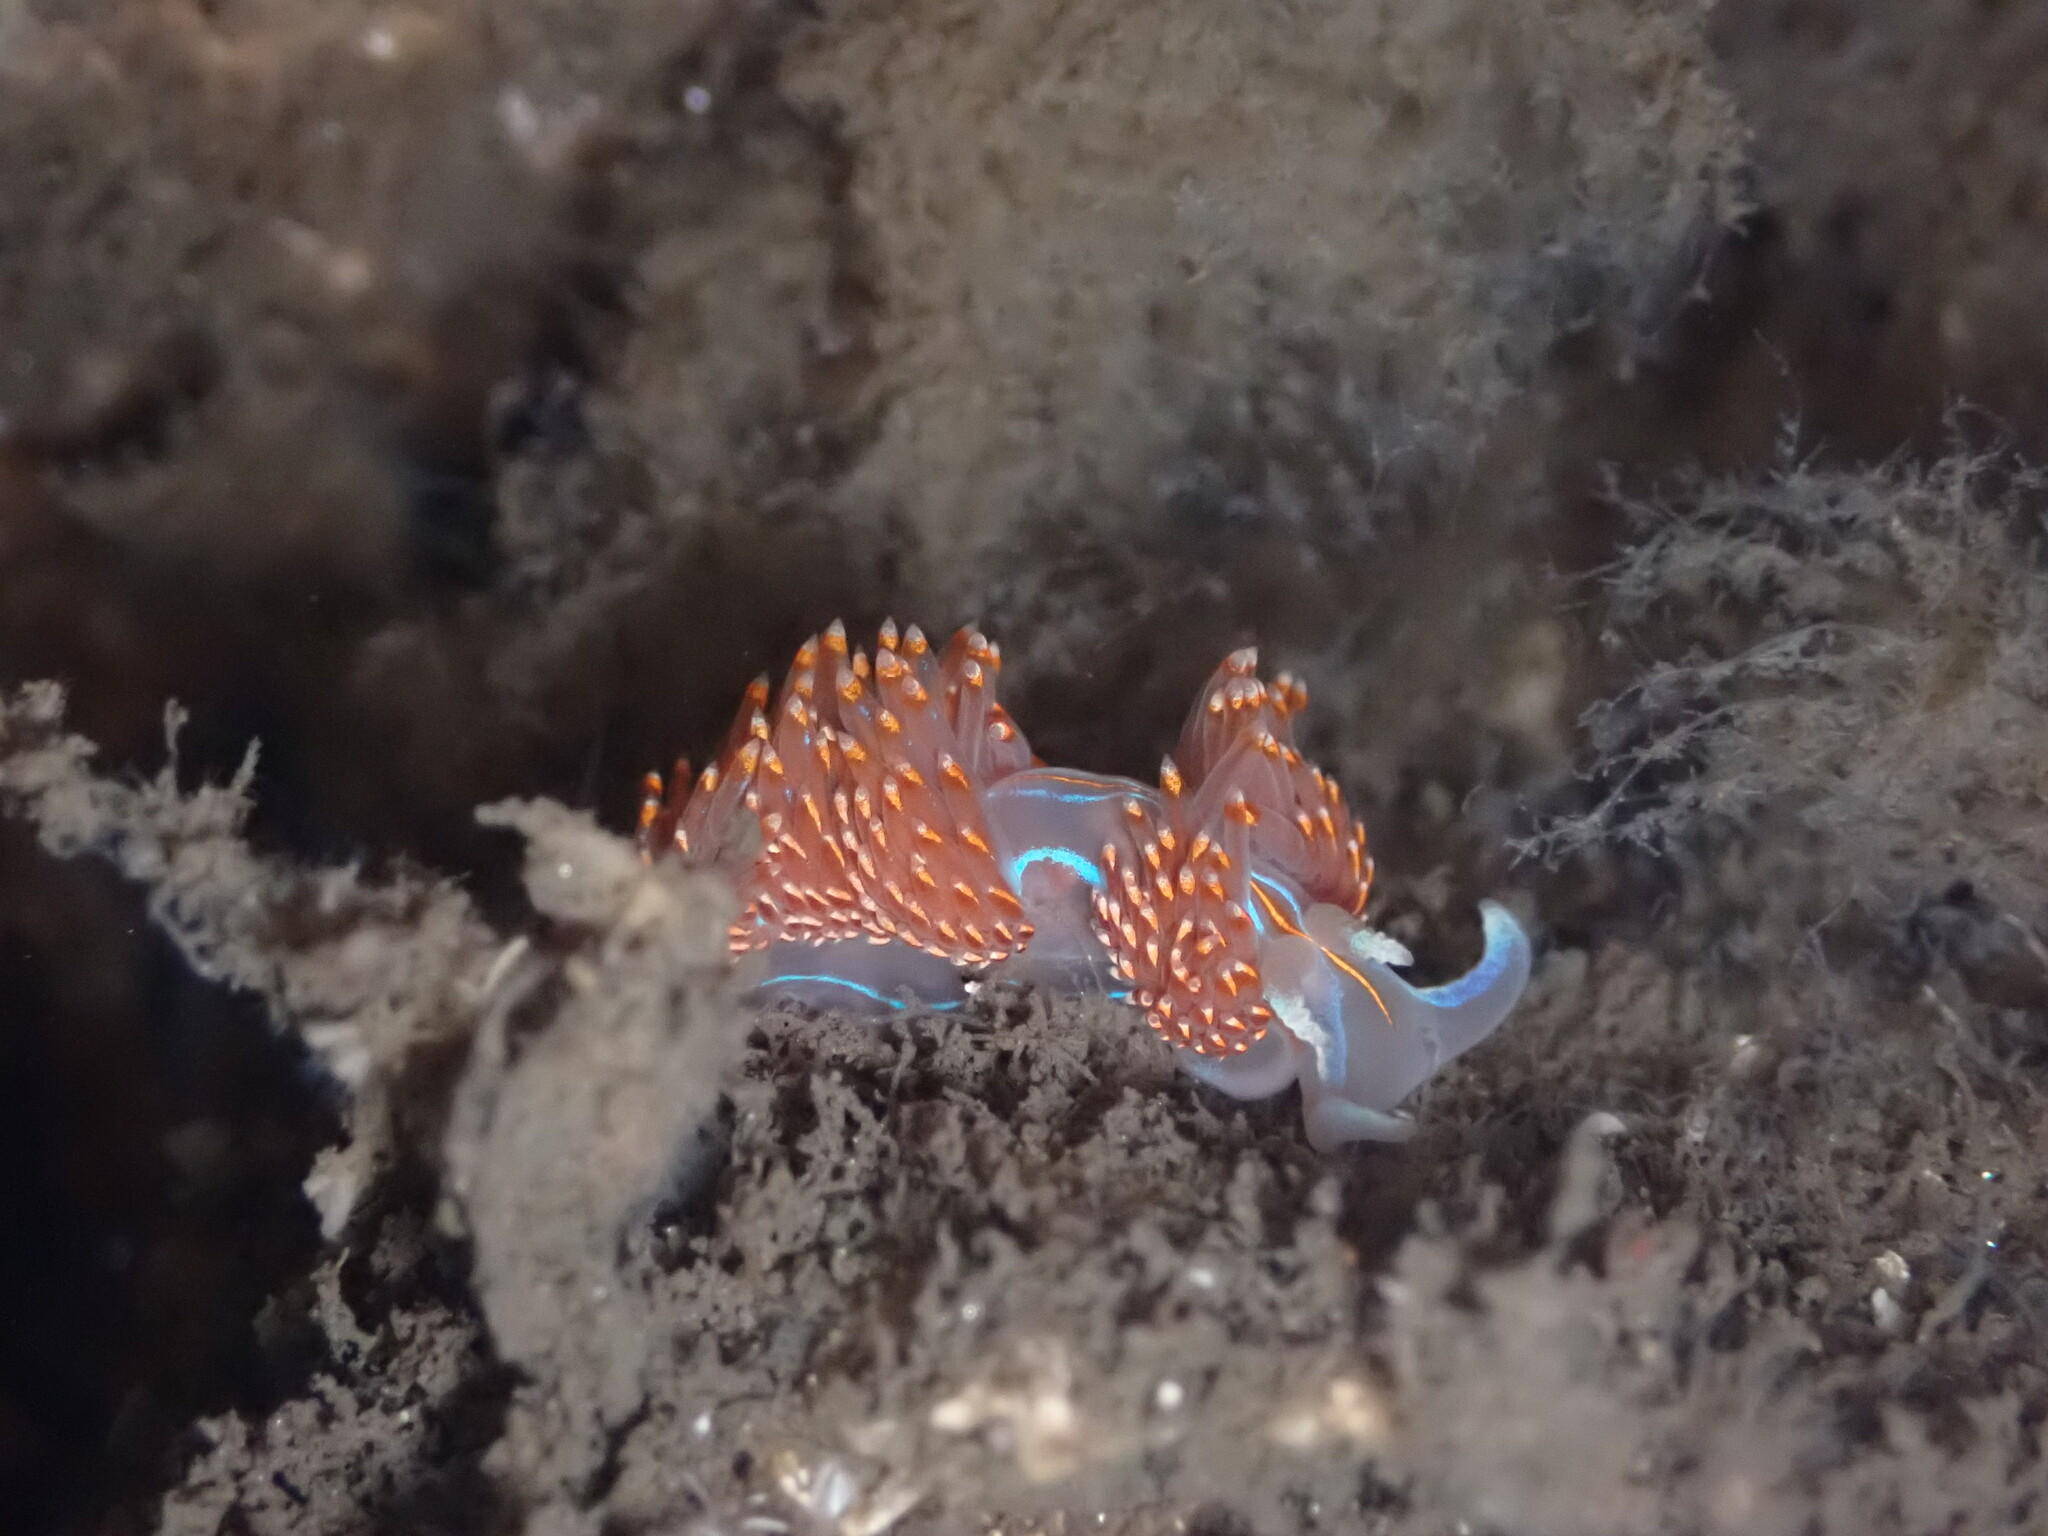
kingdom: Animalia
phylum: Mollusca
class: Gastropoda
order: Nudibranchia
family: Myrrhinidae
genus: Hermissenda
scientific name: Hermissenda opalescens
